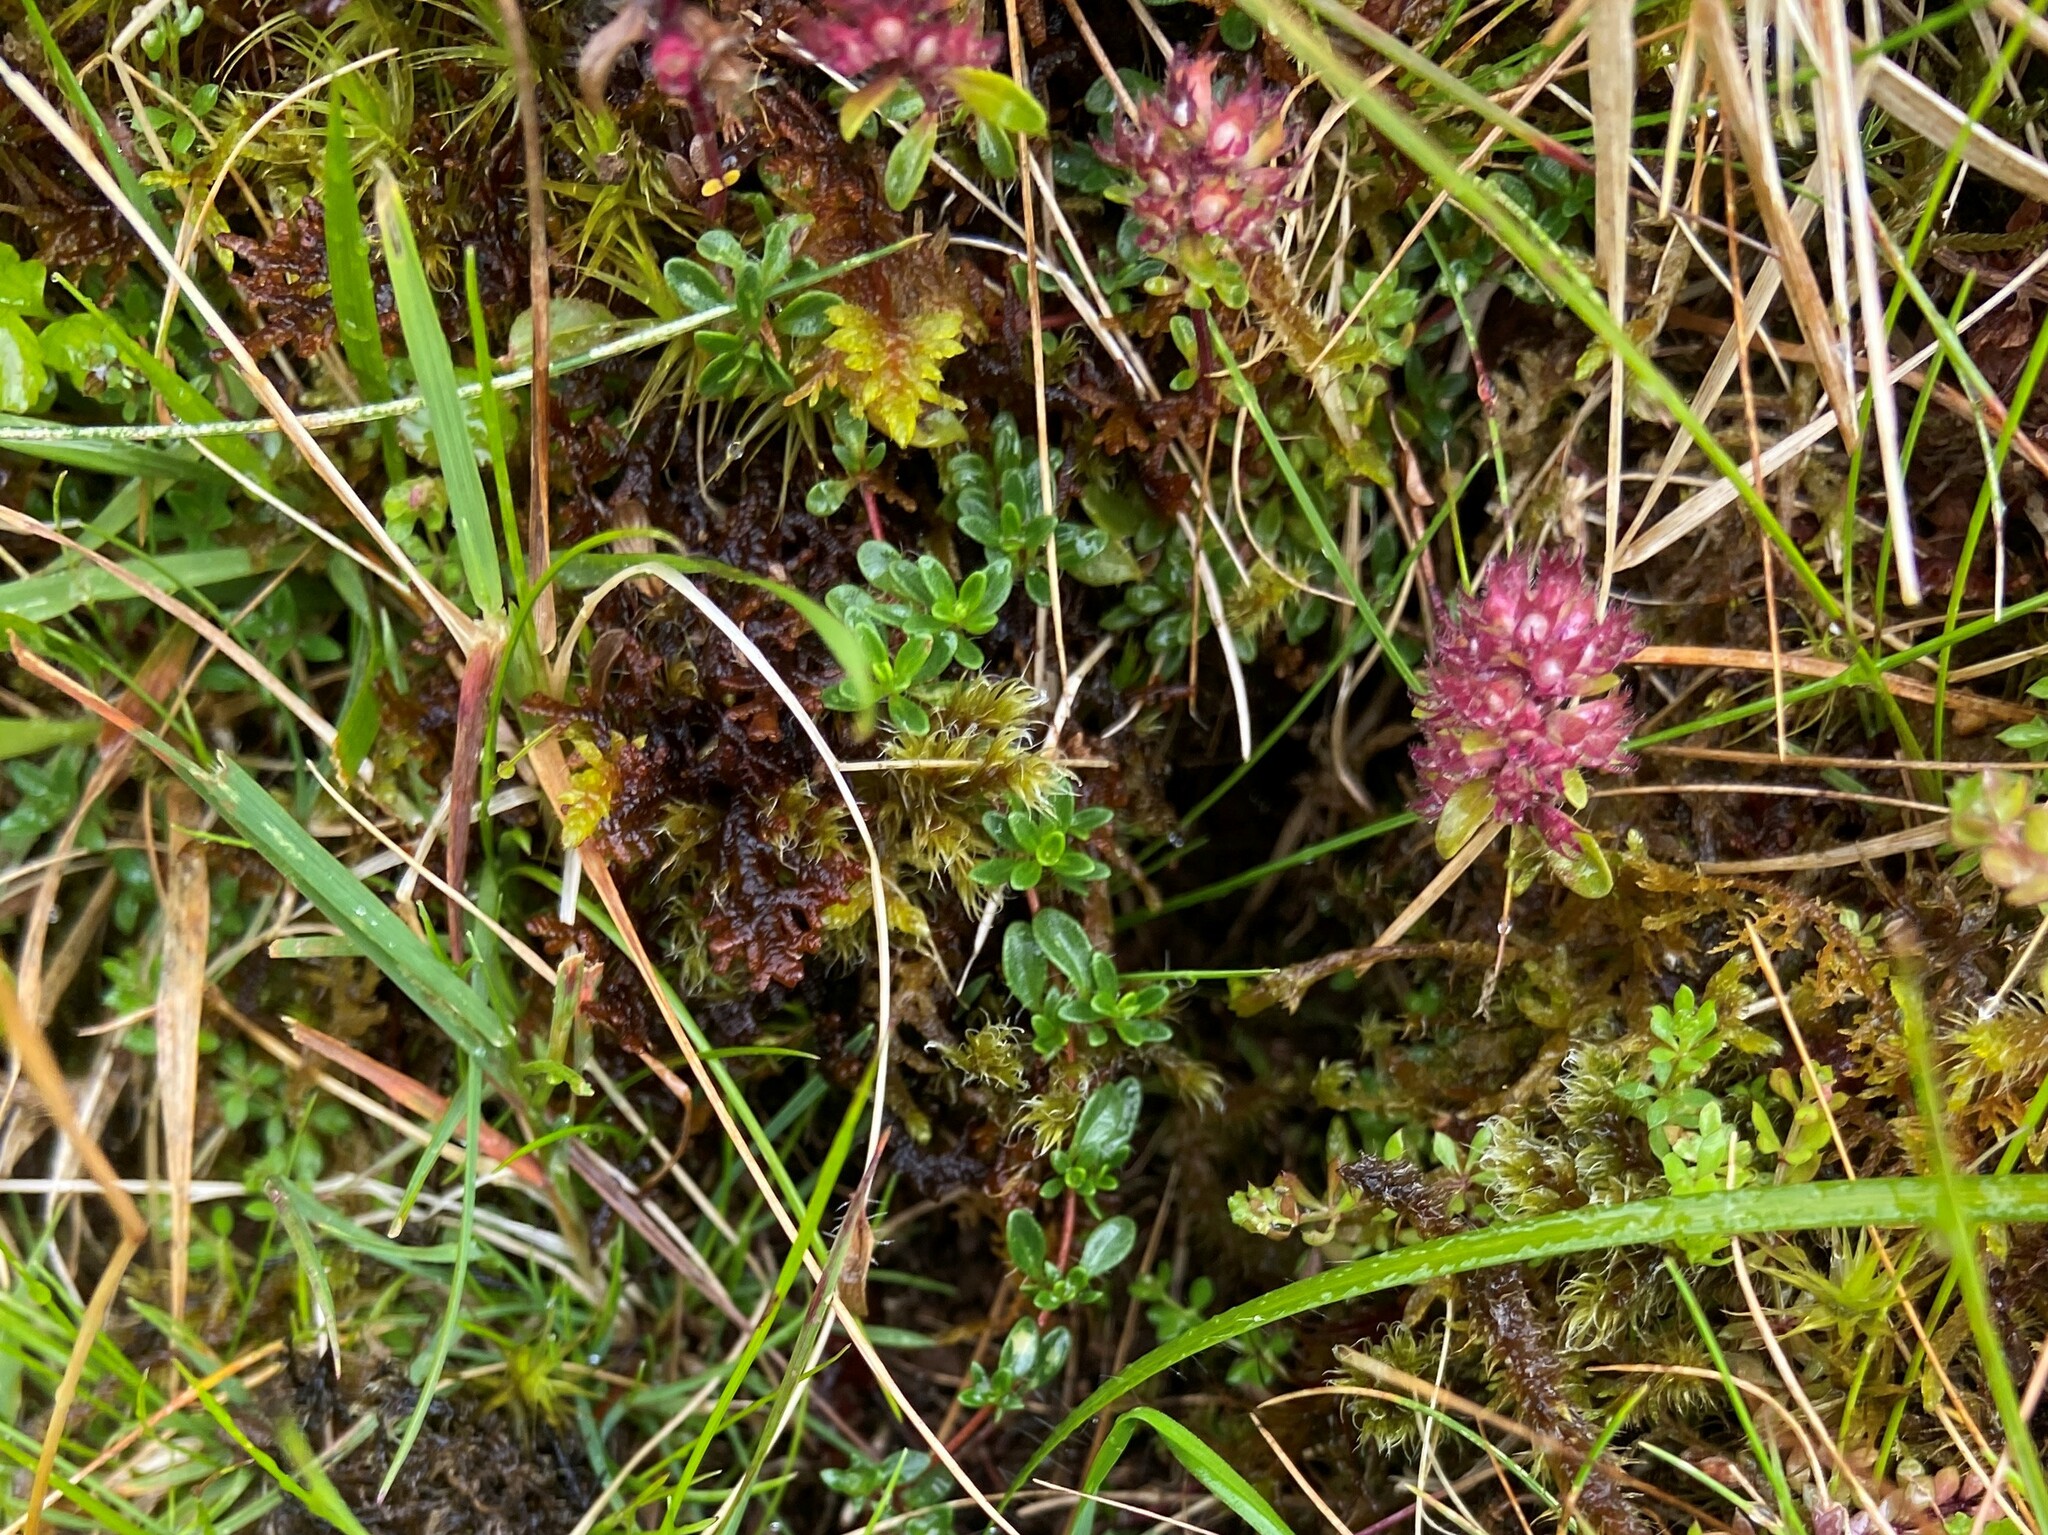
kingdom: Plantae
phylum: Tracheophyta
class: Magnoliopsida
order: Lamiales
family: Lamiaceae
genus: Thymus
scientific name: Thymus praecox
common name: Wild thyme
